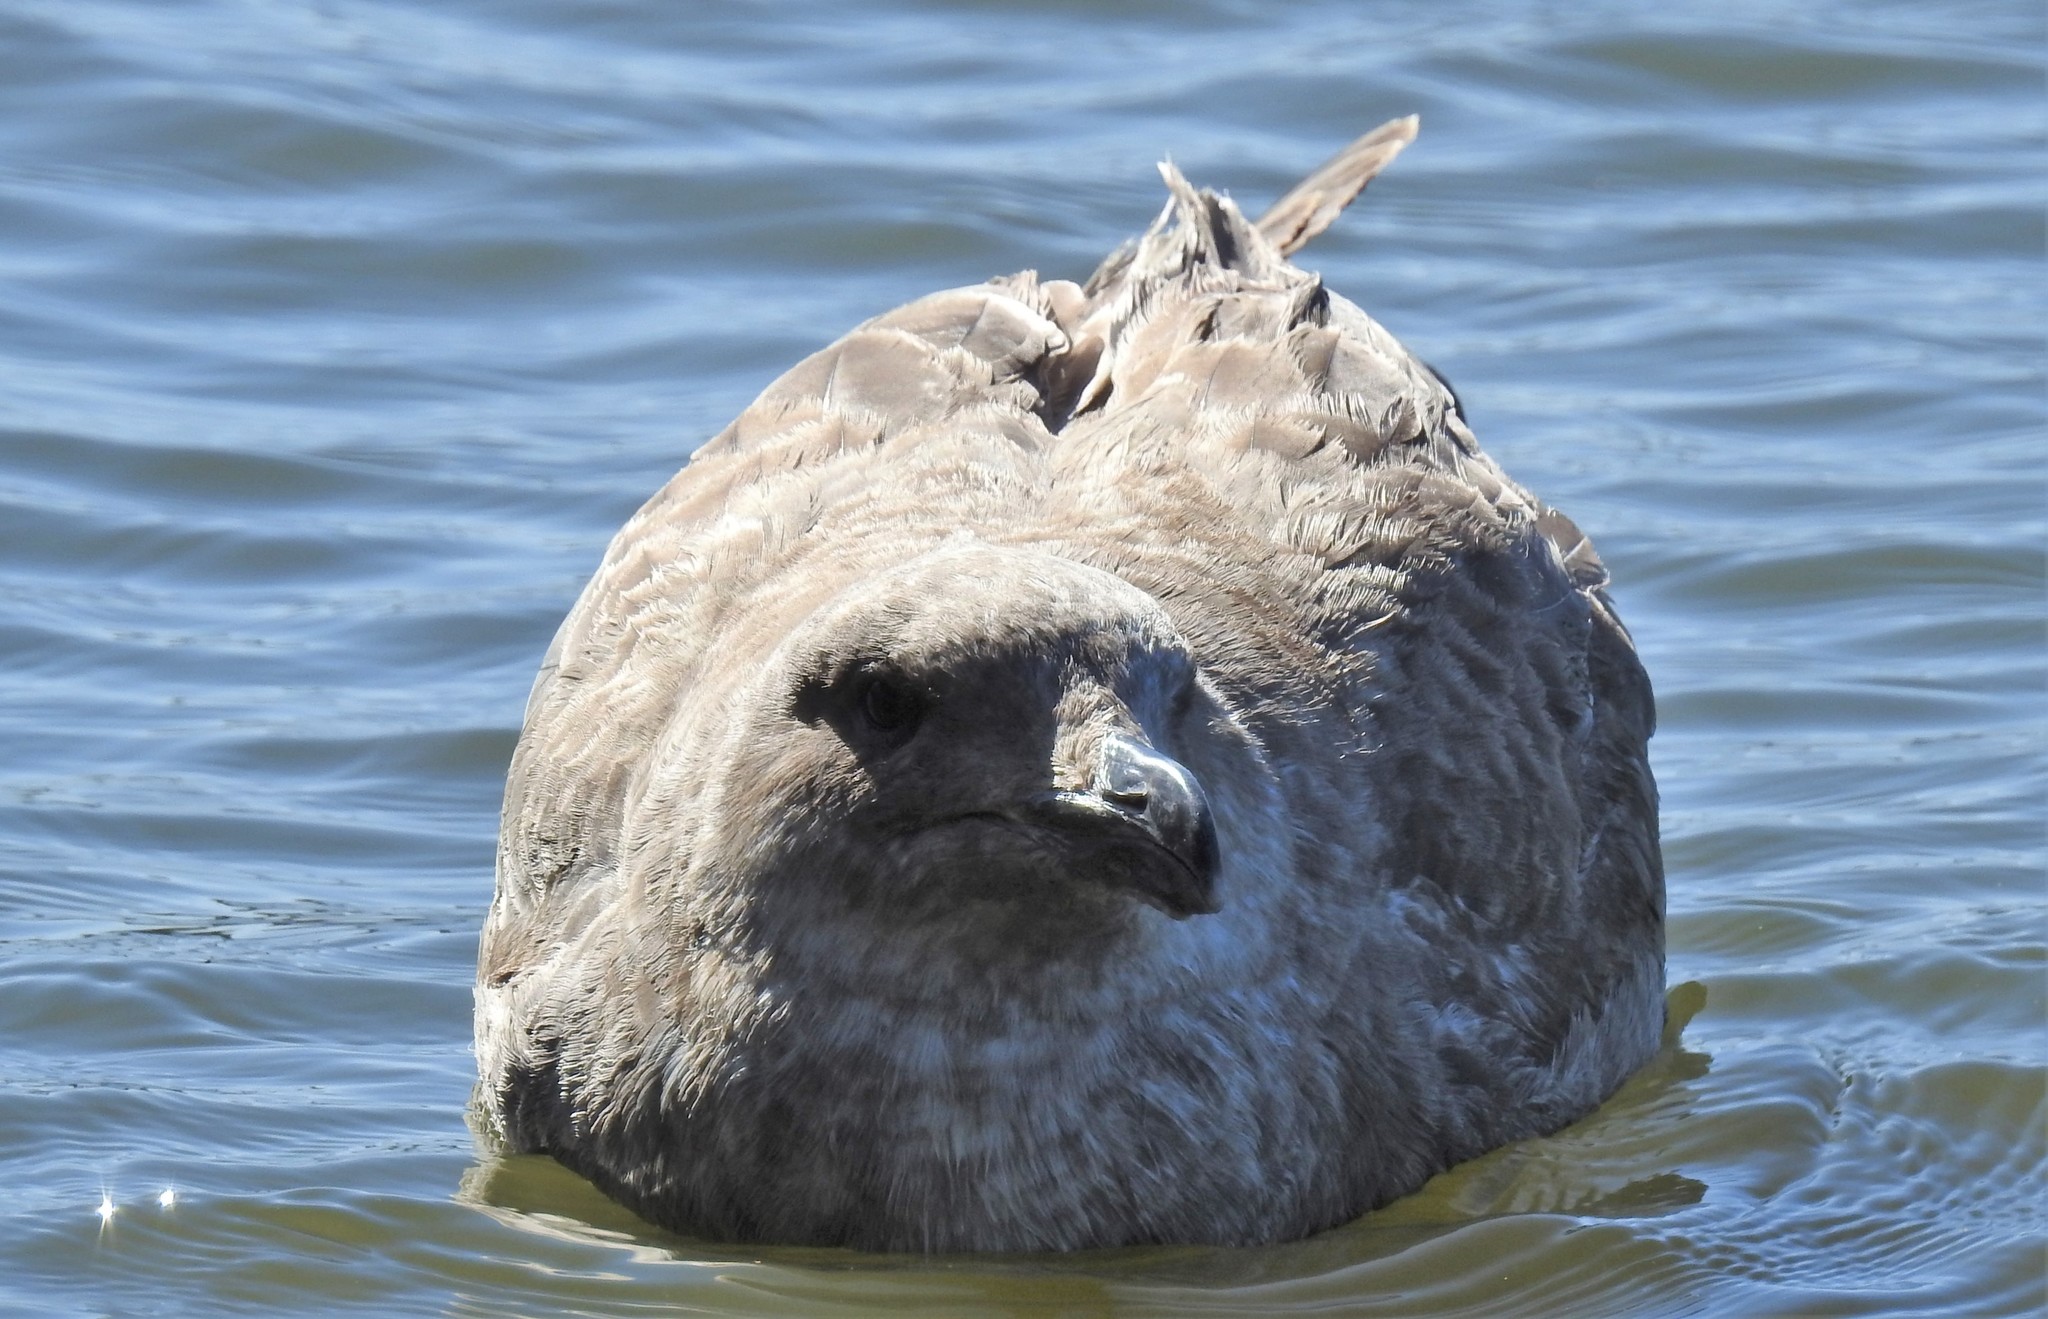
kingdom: Animalia
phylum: Chordata
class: Aves
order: Charadriiformes
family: Laridae
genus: Larus
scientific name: Larus occidentalis
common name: Western gull
